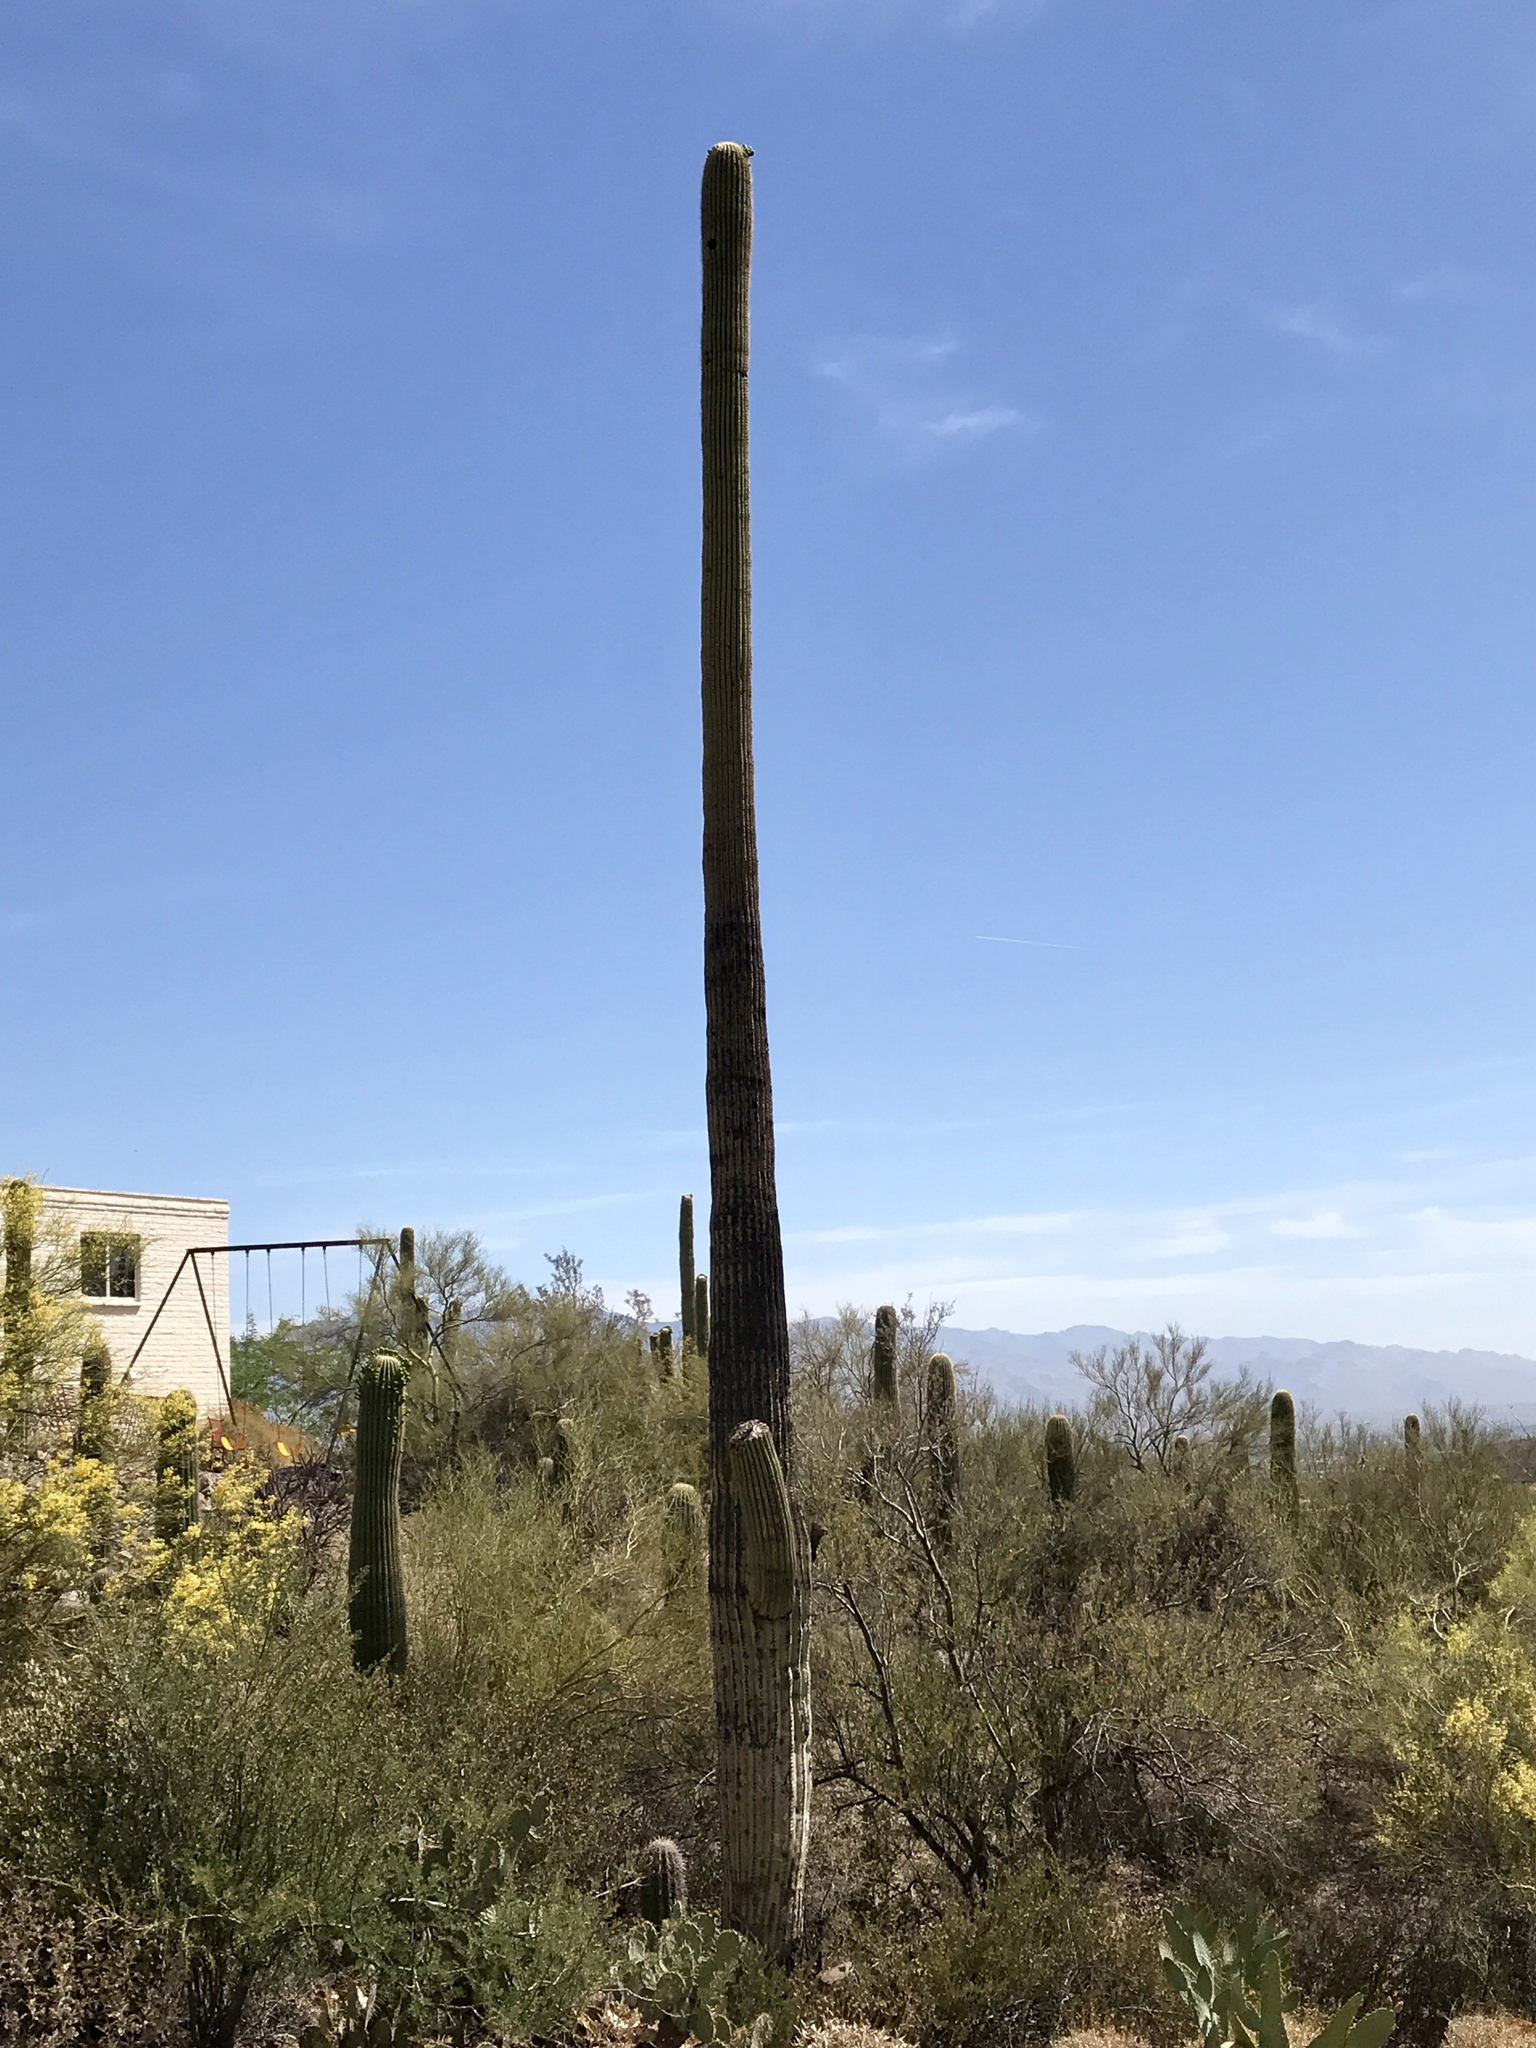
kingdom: Plantae
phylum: Tracheophyta
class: Magnoliopsida
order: Caryophyllales
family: Cactaceae
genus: Carnegiea
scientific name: Carnegiea gigantea
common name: Saguaro
